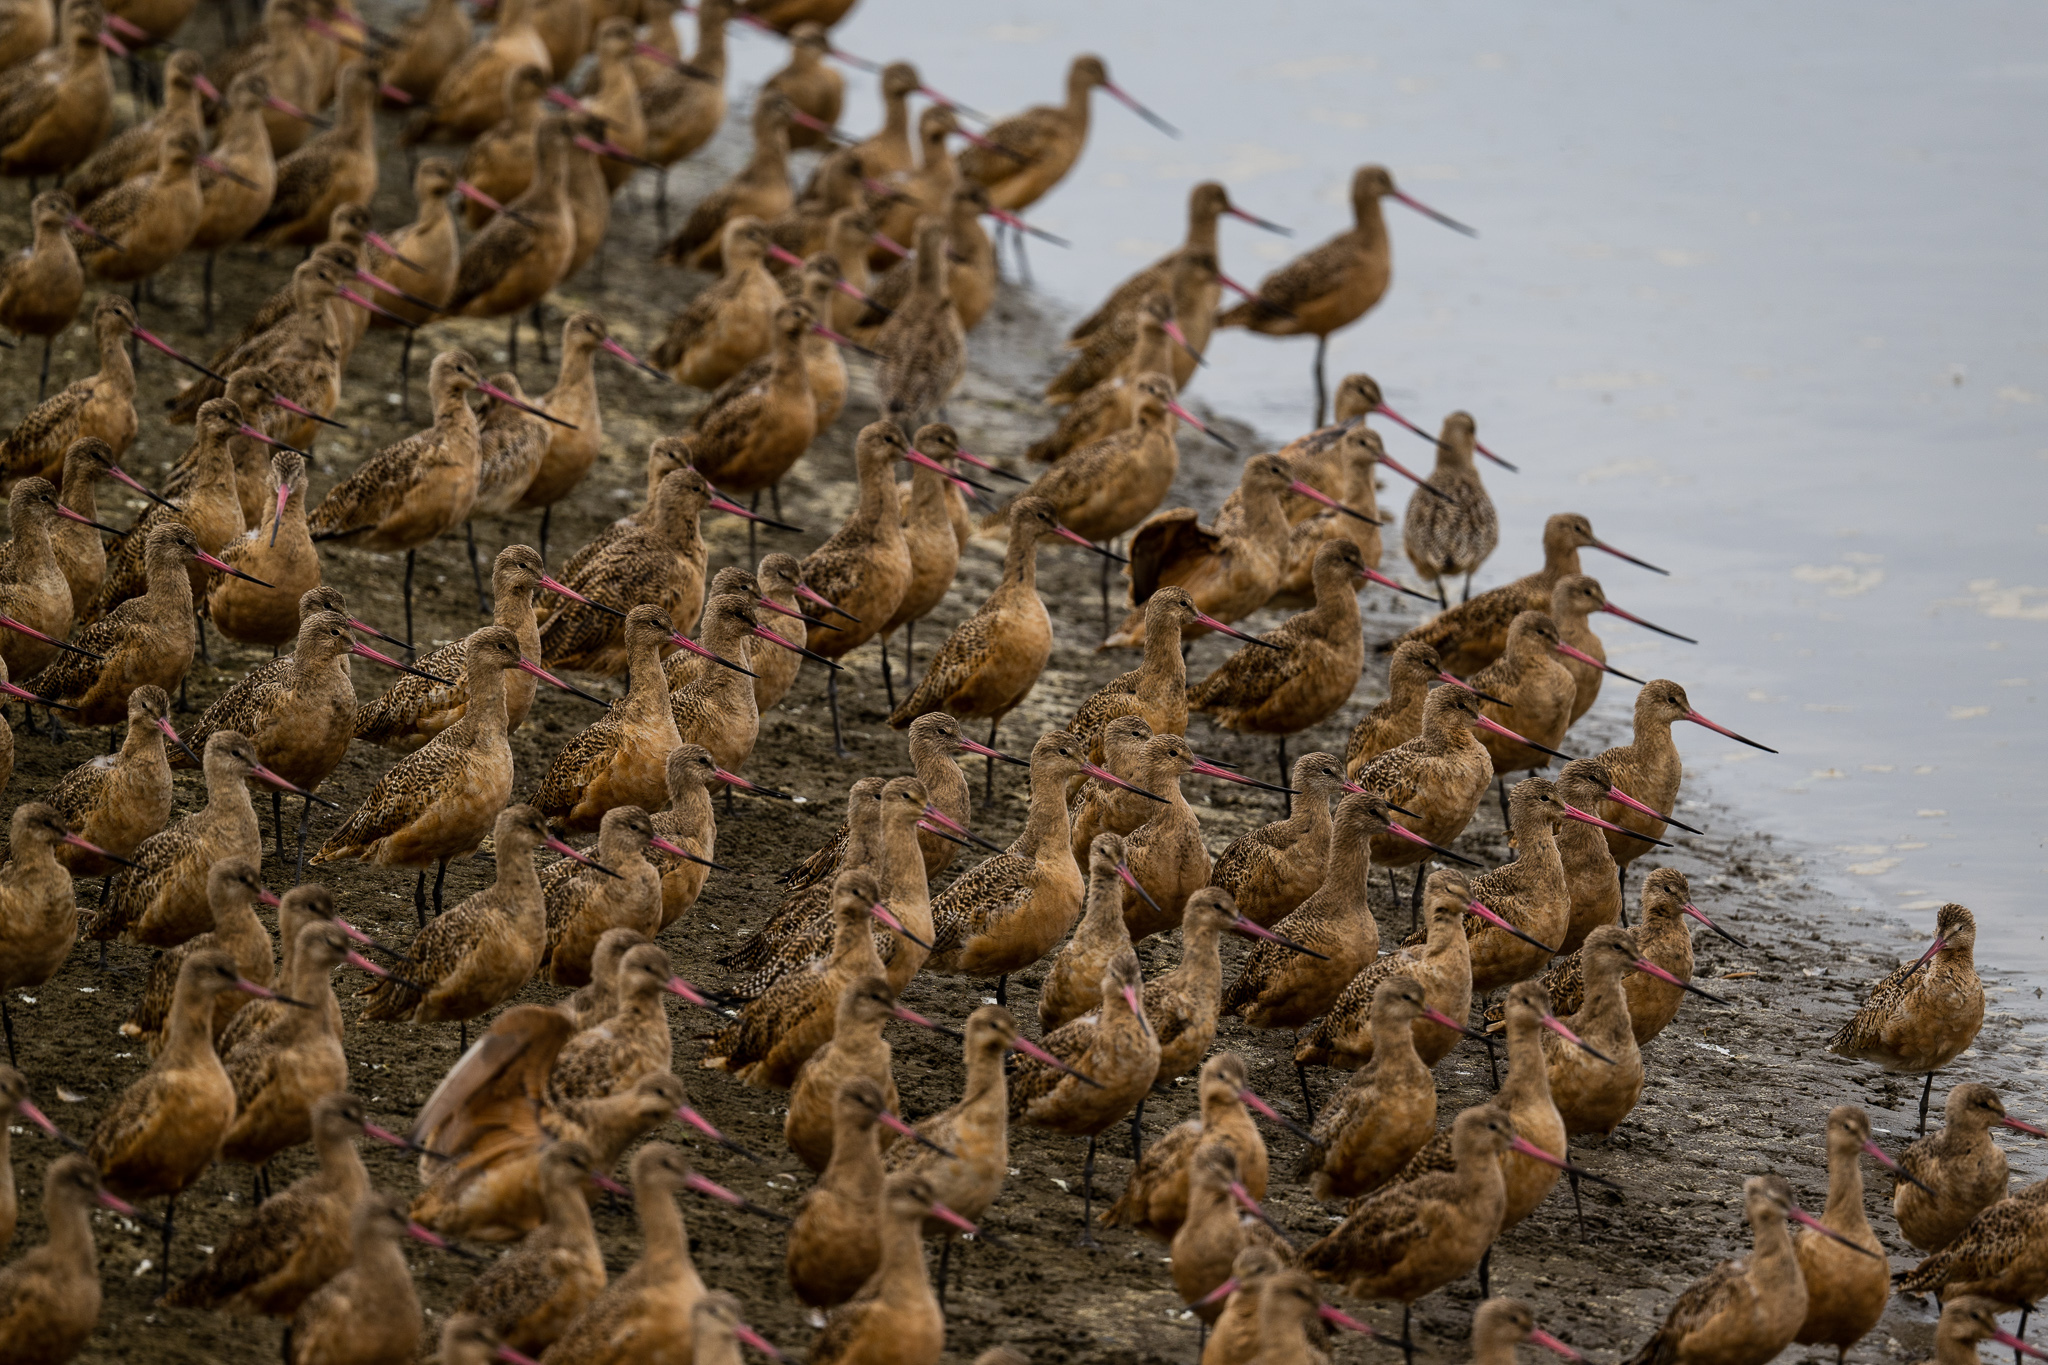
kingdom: Animalia
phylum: Chordata
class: Aves
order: Charadriiformes
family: Scolopacidae
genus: Limosa
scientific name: Limosa fedoa
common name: Marbled godwit
